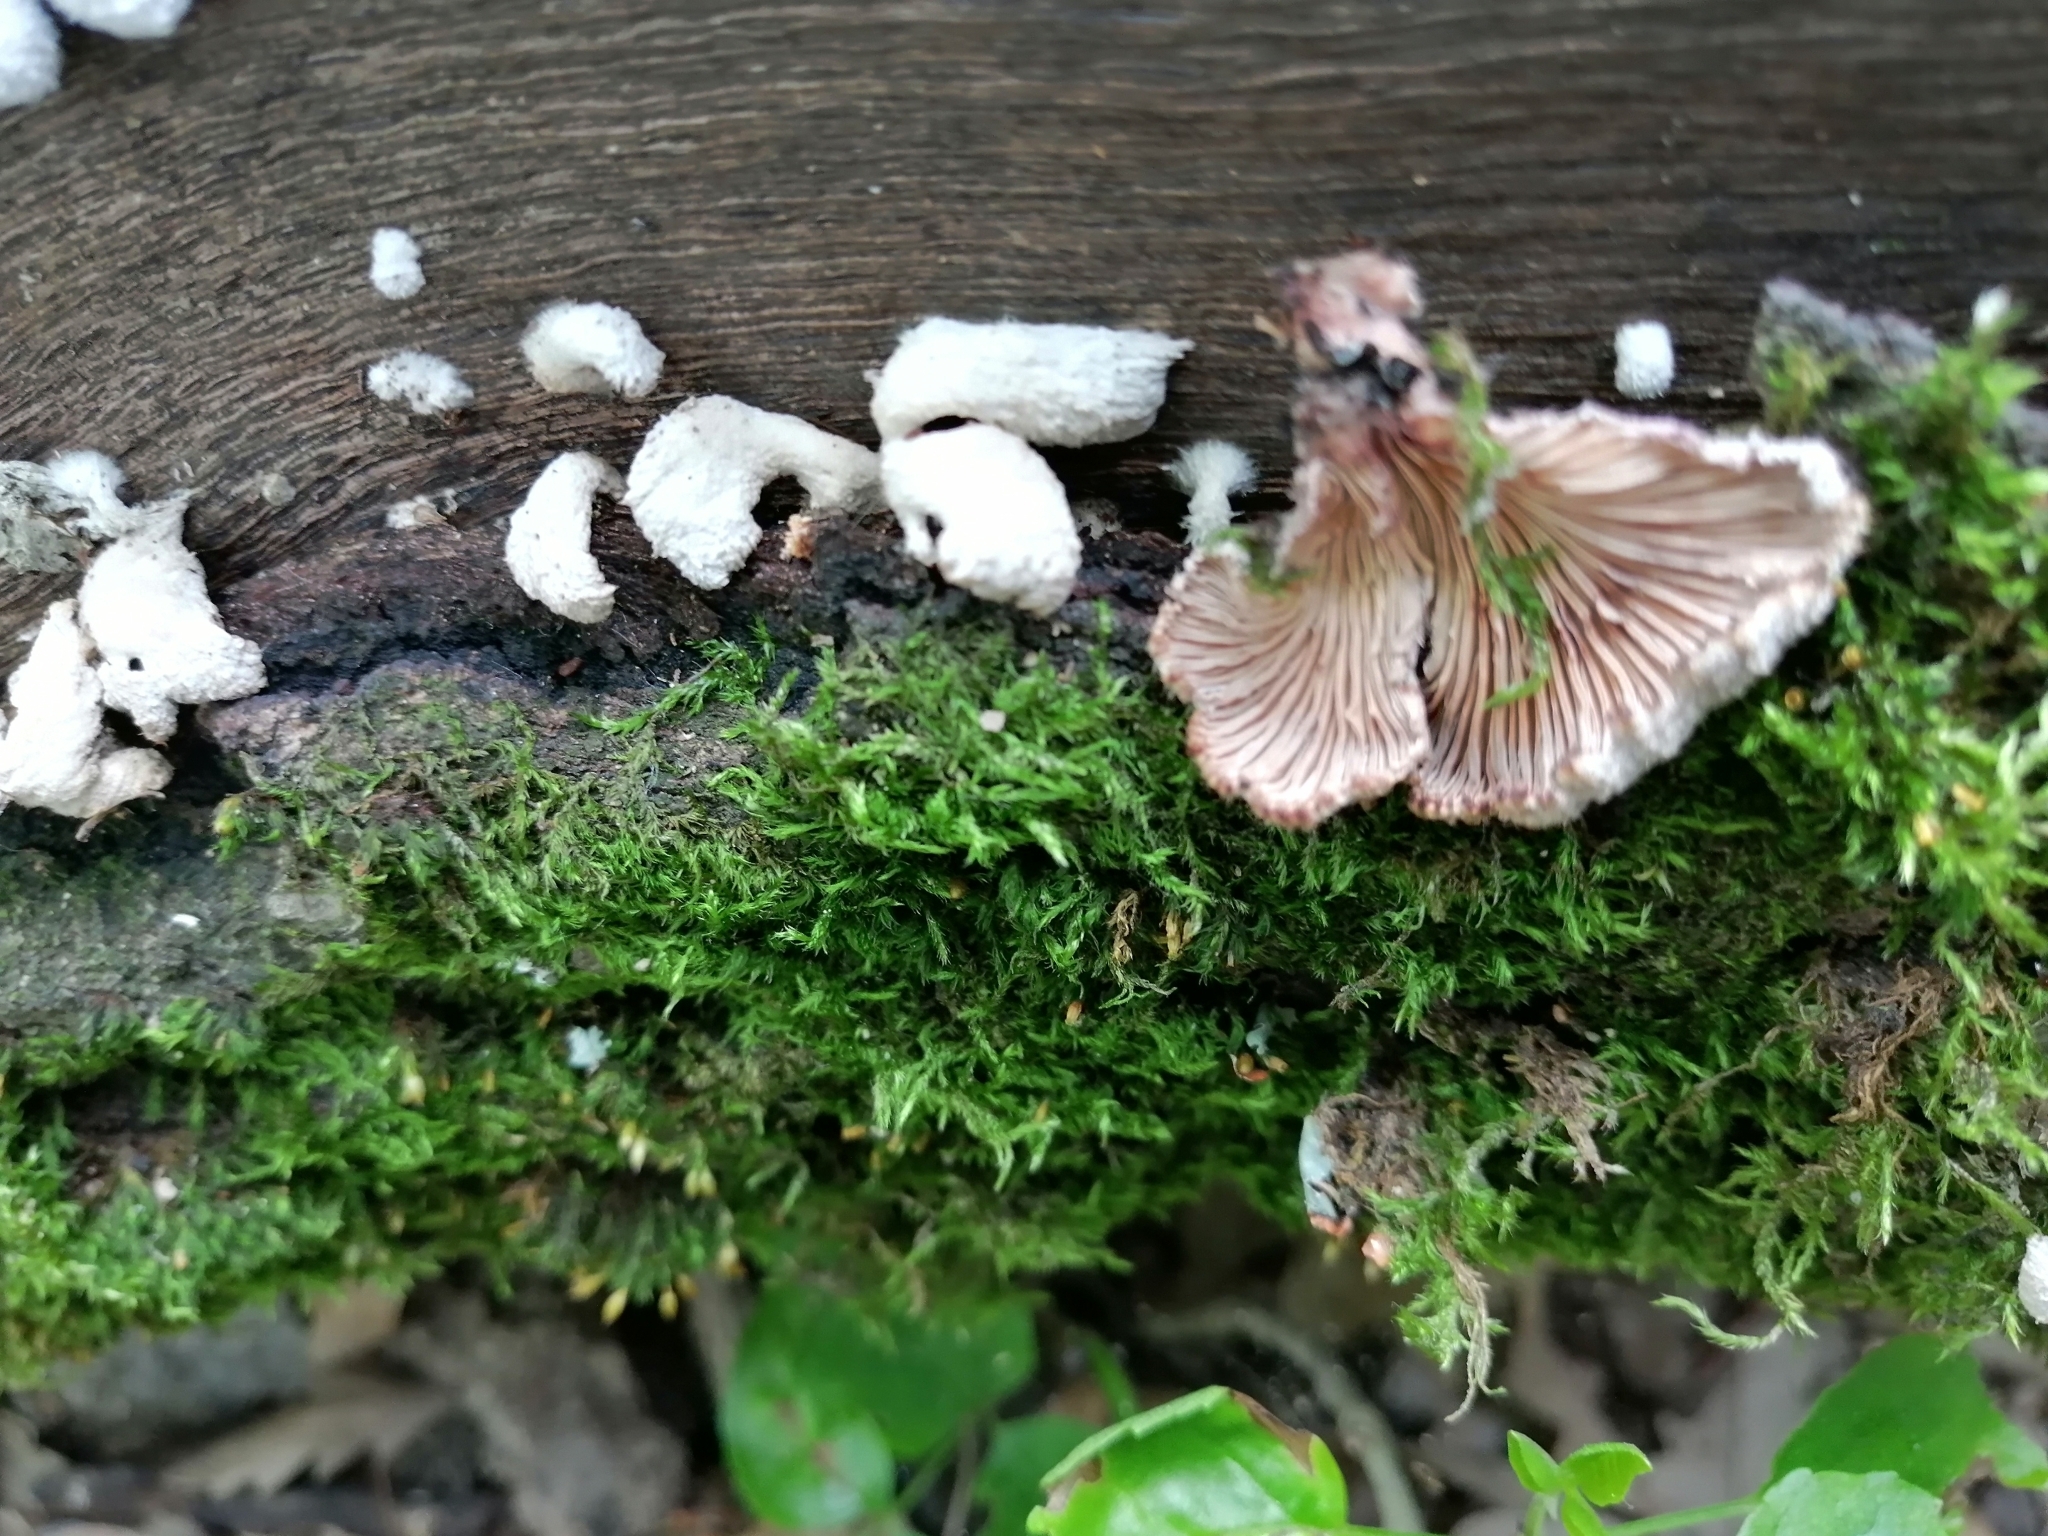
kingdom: Fungi
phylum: Basidiomycota
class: Agaricomycetes
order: Agaricales
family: Schizophyllaceae
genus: Schizophyllum
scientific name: Schizophyllum commune
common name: Common porecrust
